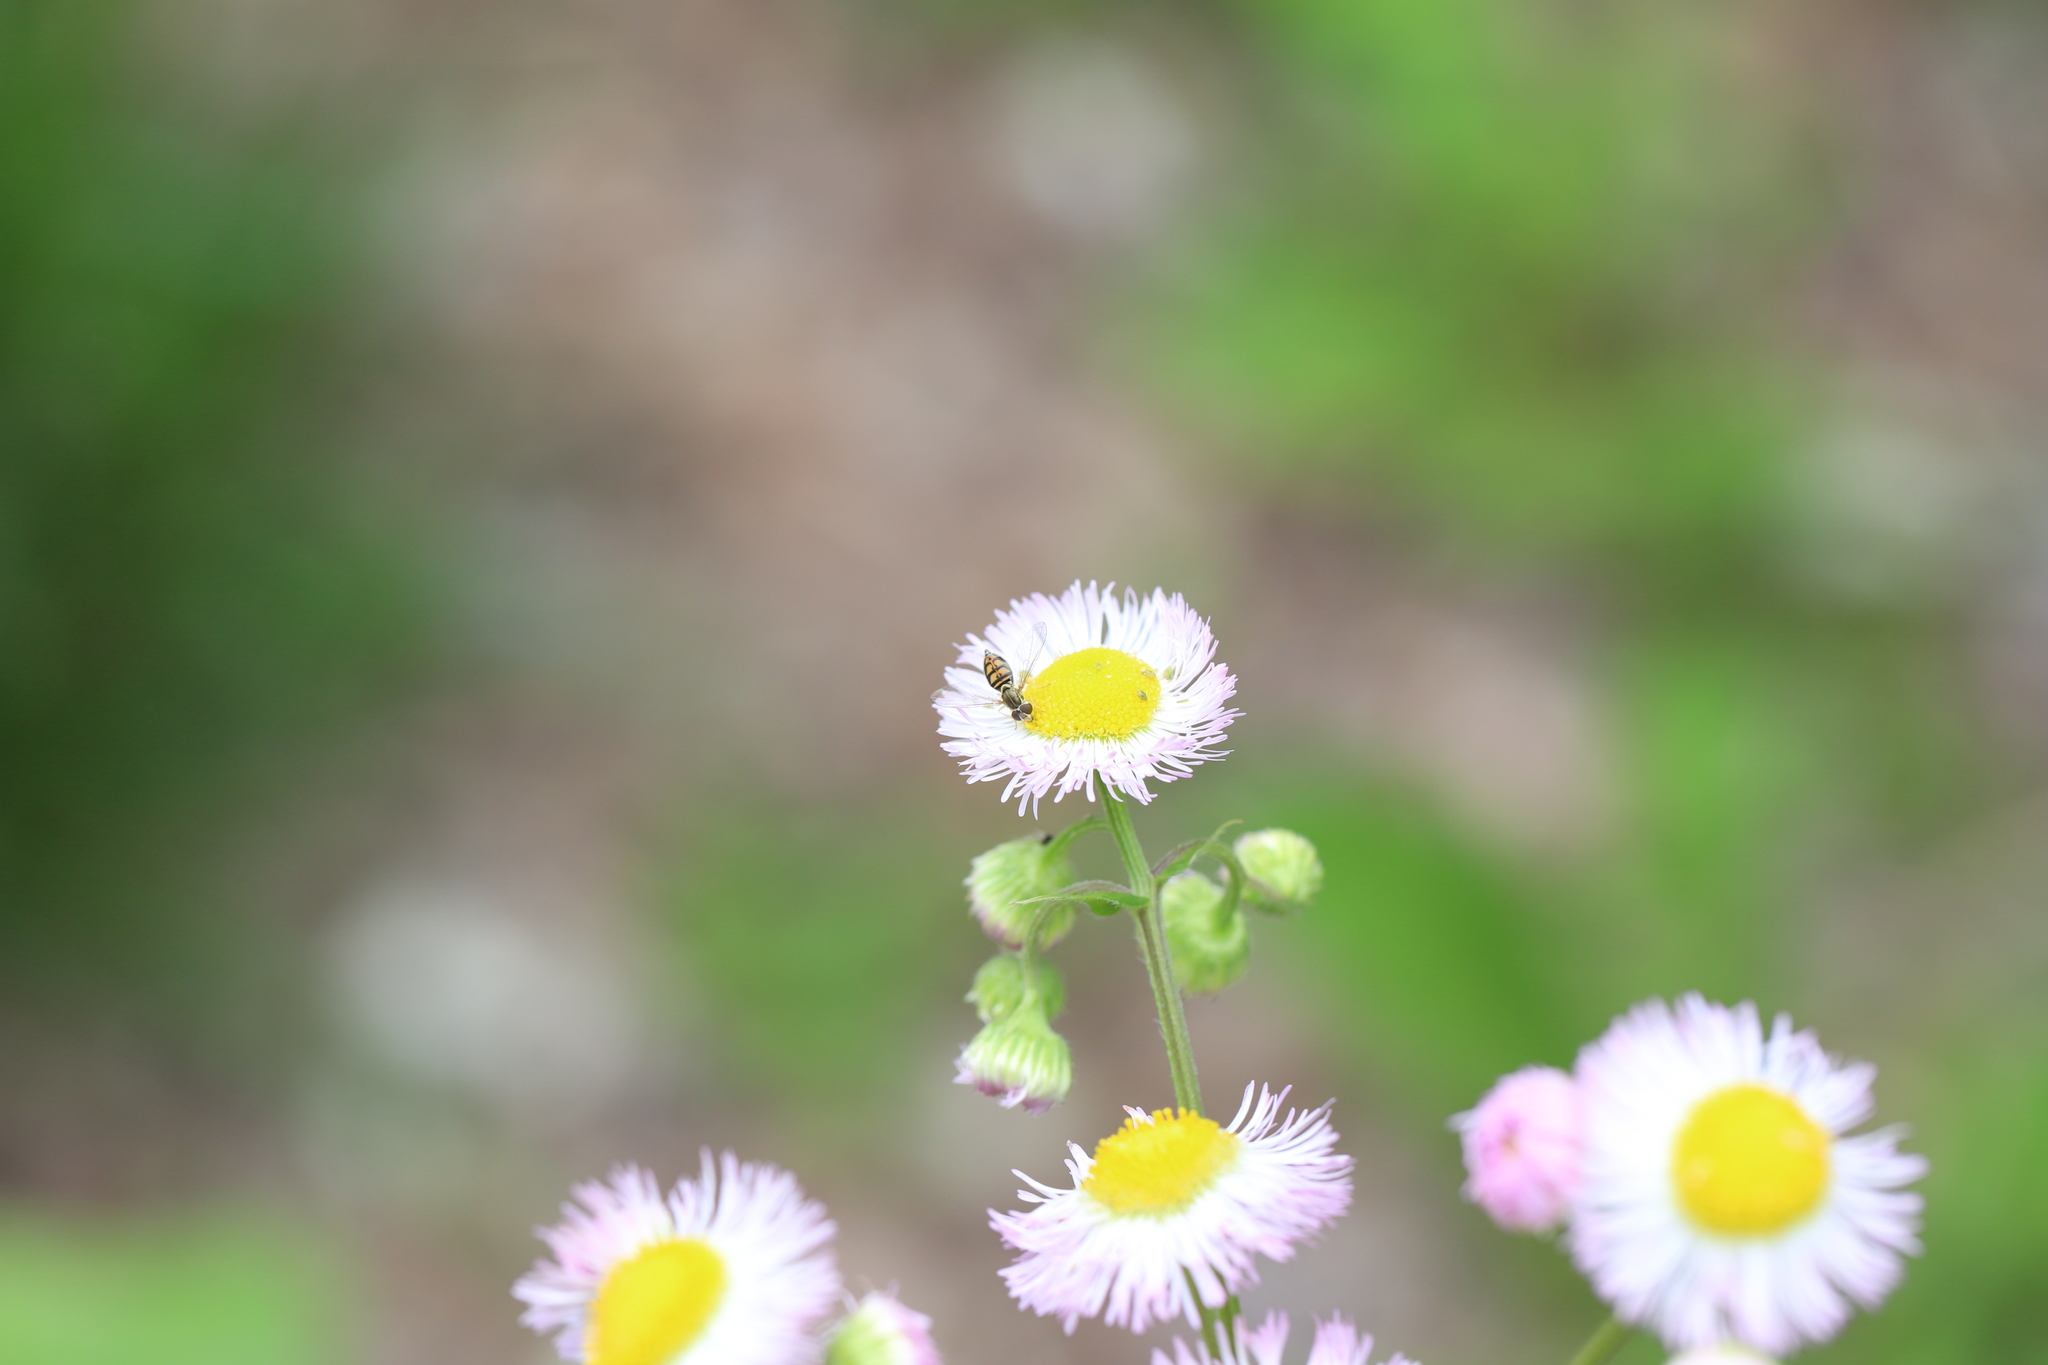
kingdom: Plantae
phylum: Tracheophyta
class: Magnoliopsida
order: Asterales
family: Asteraceae
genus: Erigeron
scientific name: Erigeron philadelphicus
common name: Robin's-plantain
